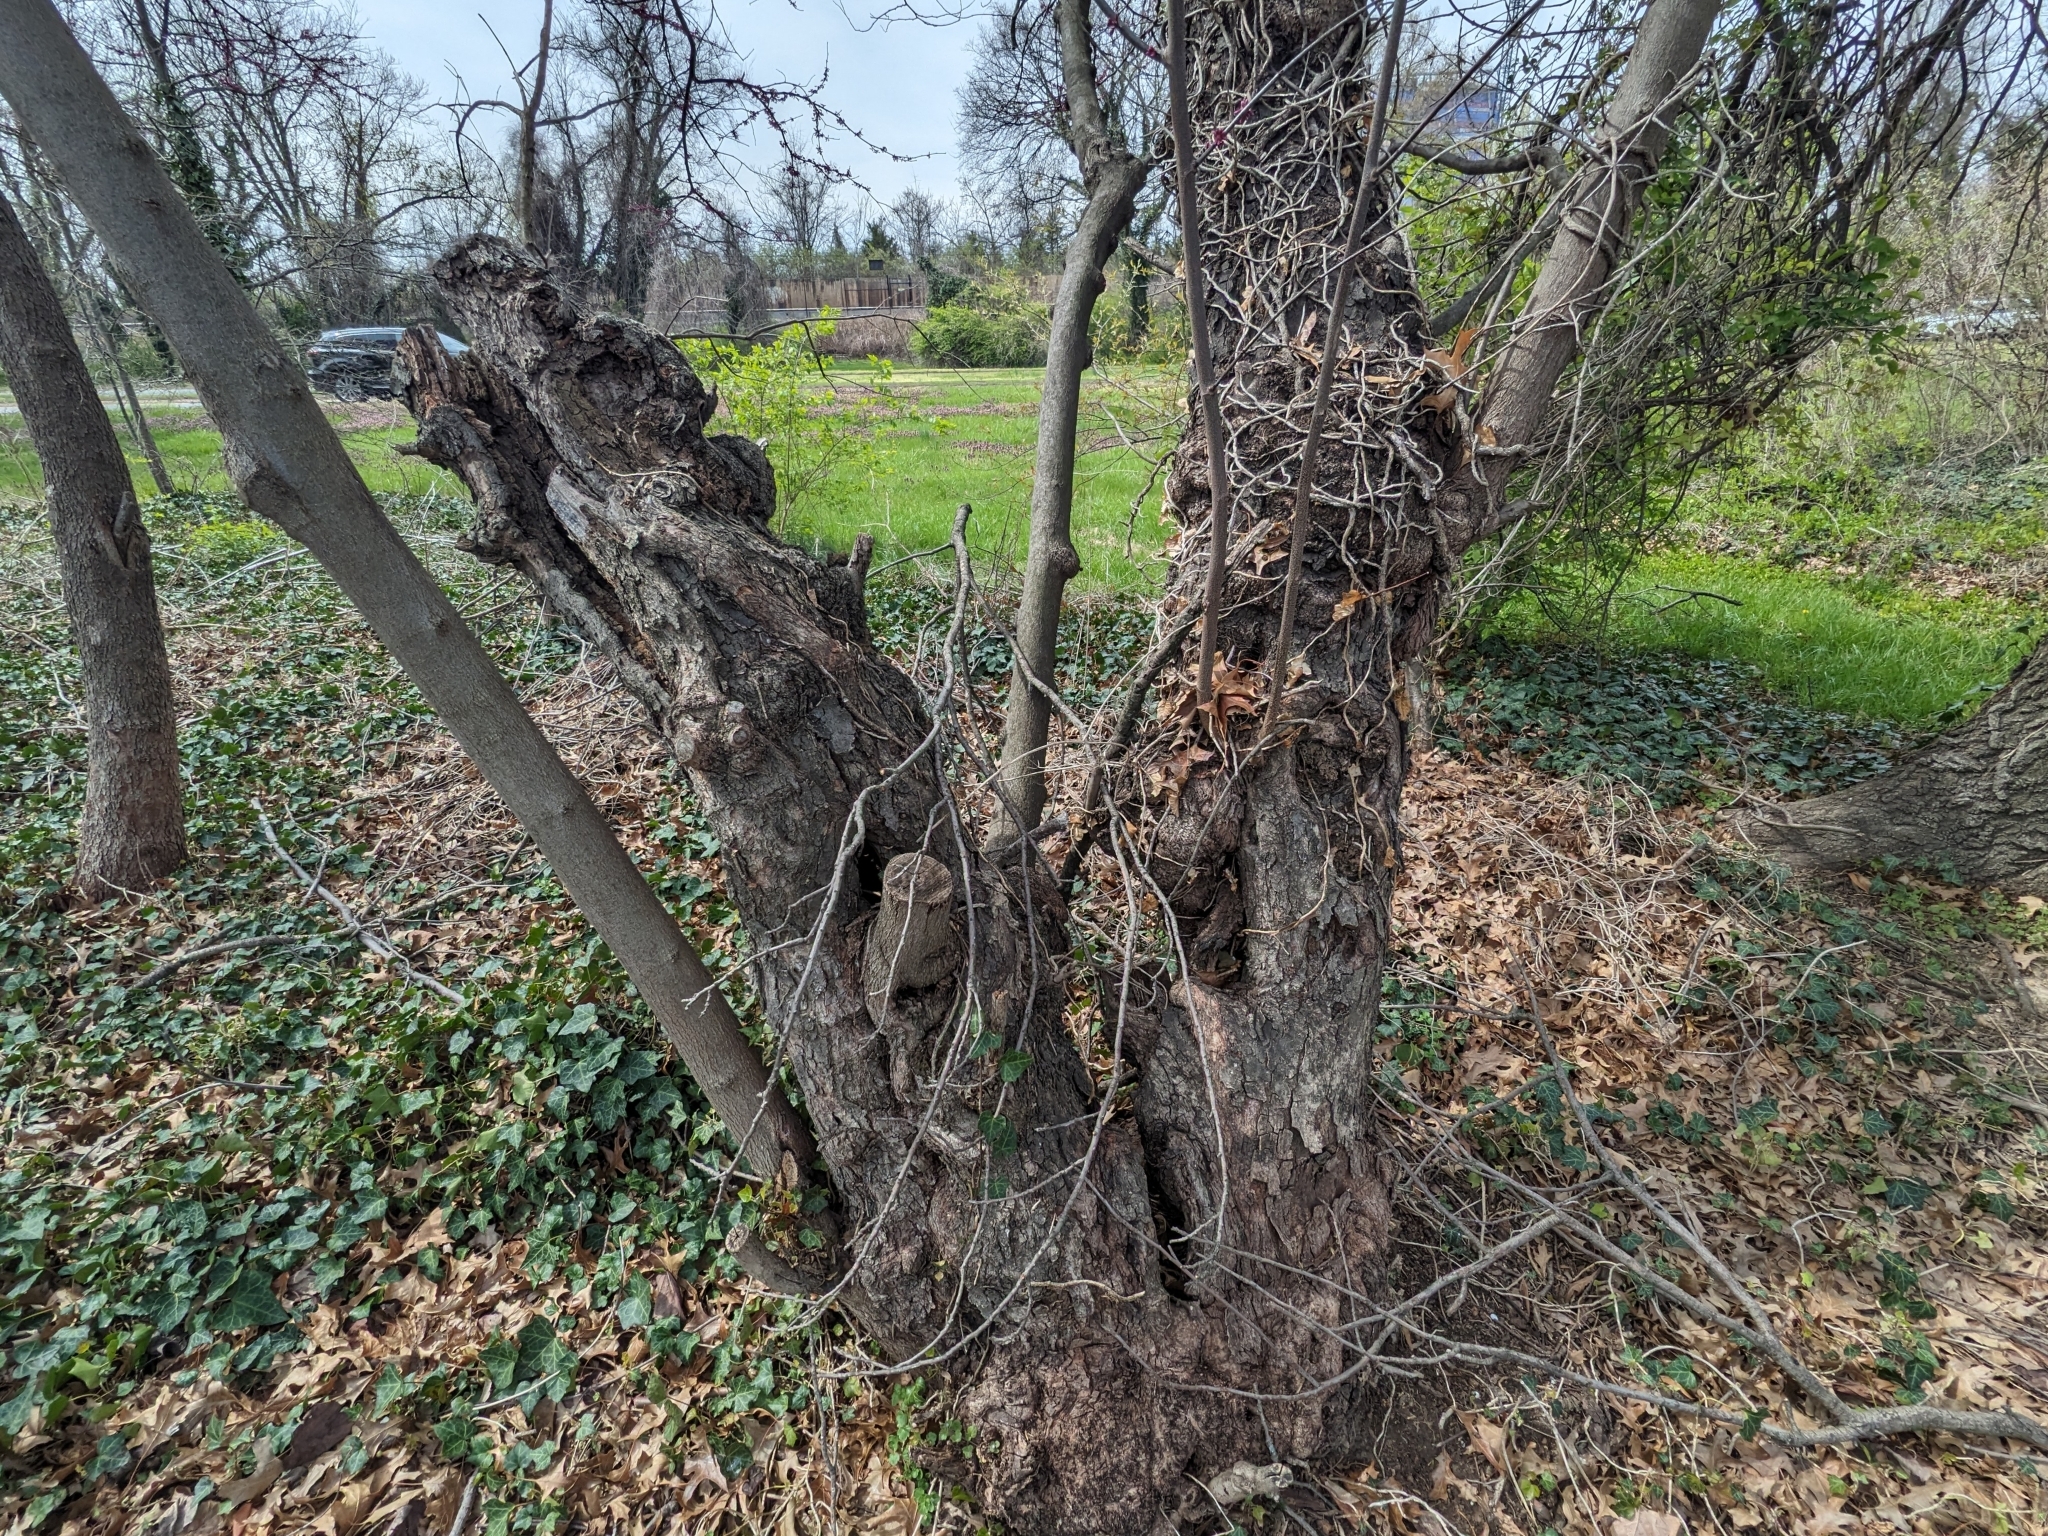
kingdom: Plantae
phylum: Tracheophyta
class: Magnoliopsida
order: Fabales
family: Fabaceae
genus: Cercis
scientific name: Cercis canadensis
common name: Eastern redbud
